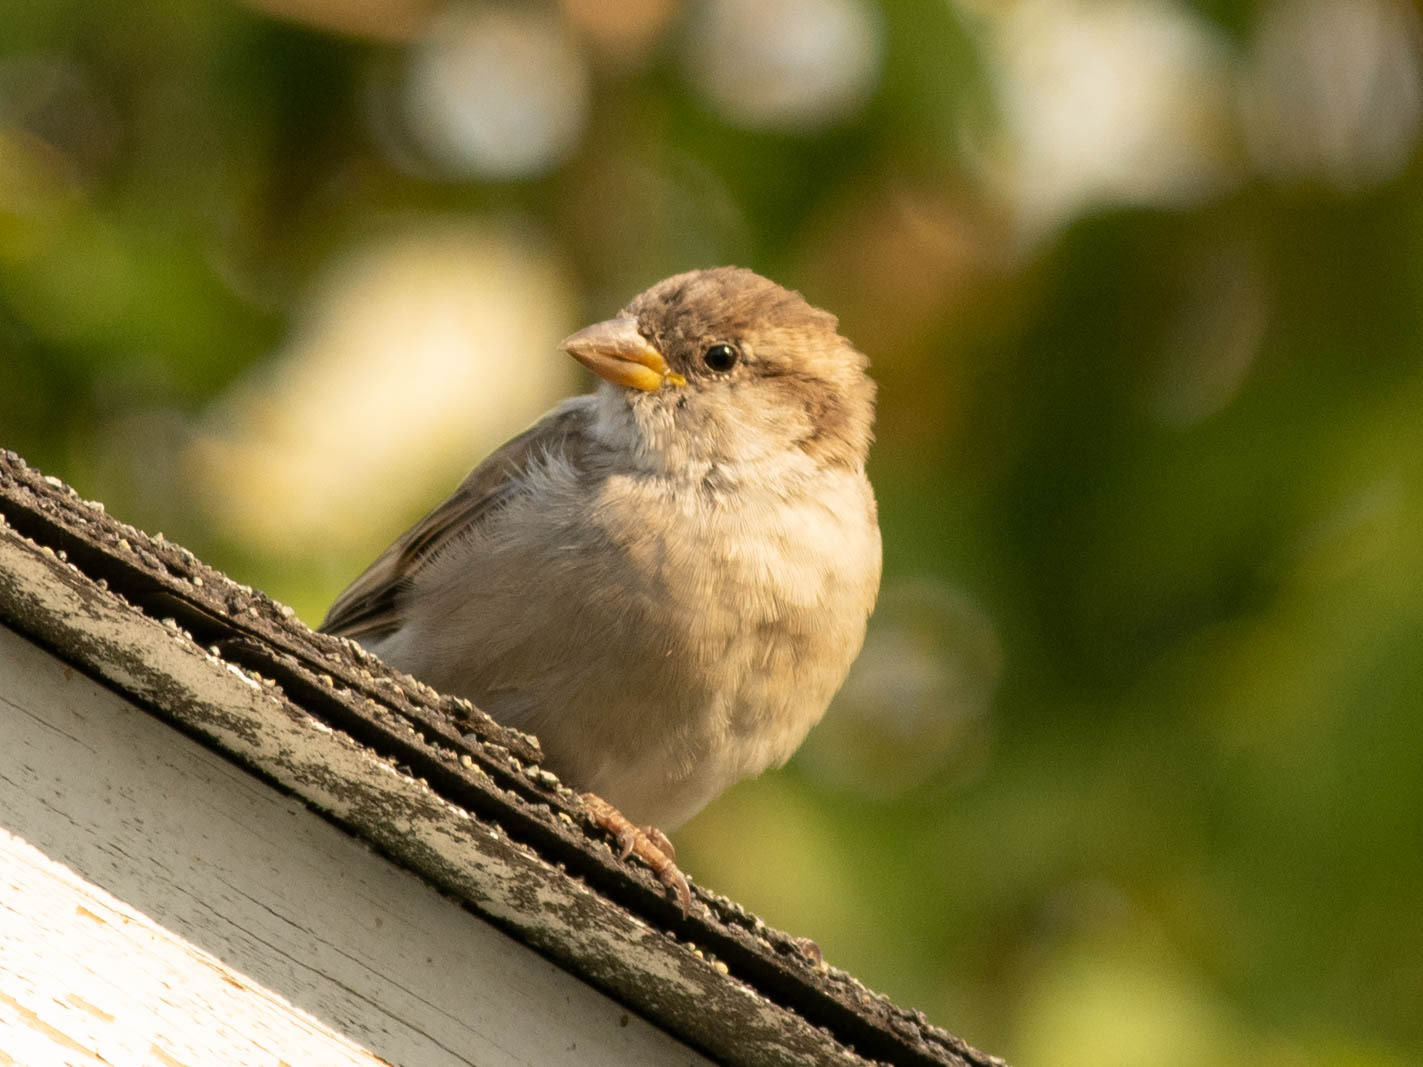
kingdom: Animalia
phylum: Chordata
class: Aves
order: Passeriformes
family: Passeridae
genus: Passer
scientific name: Passer domesticus
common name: House sparrow
